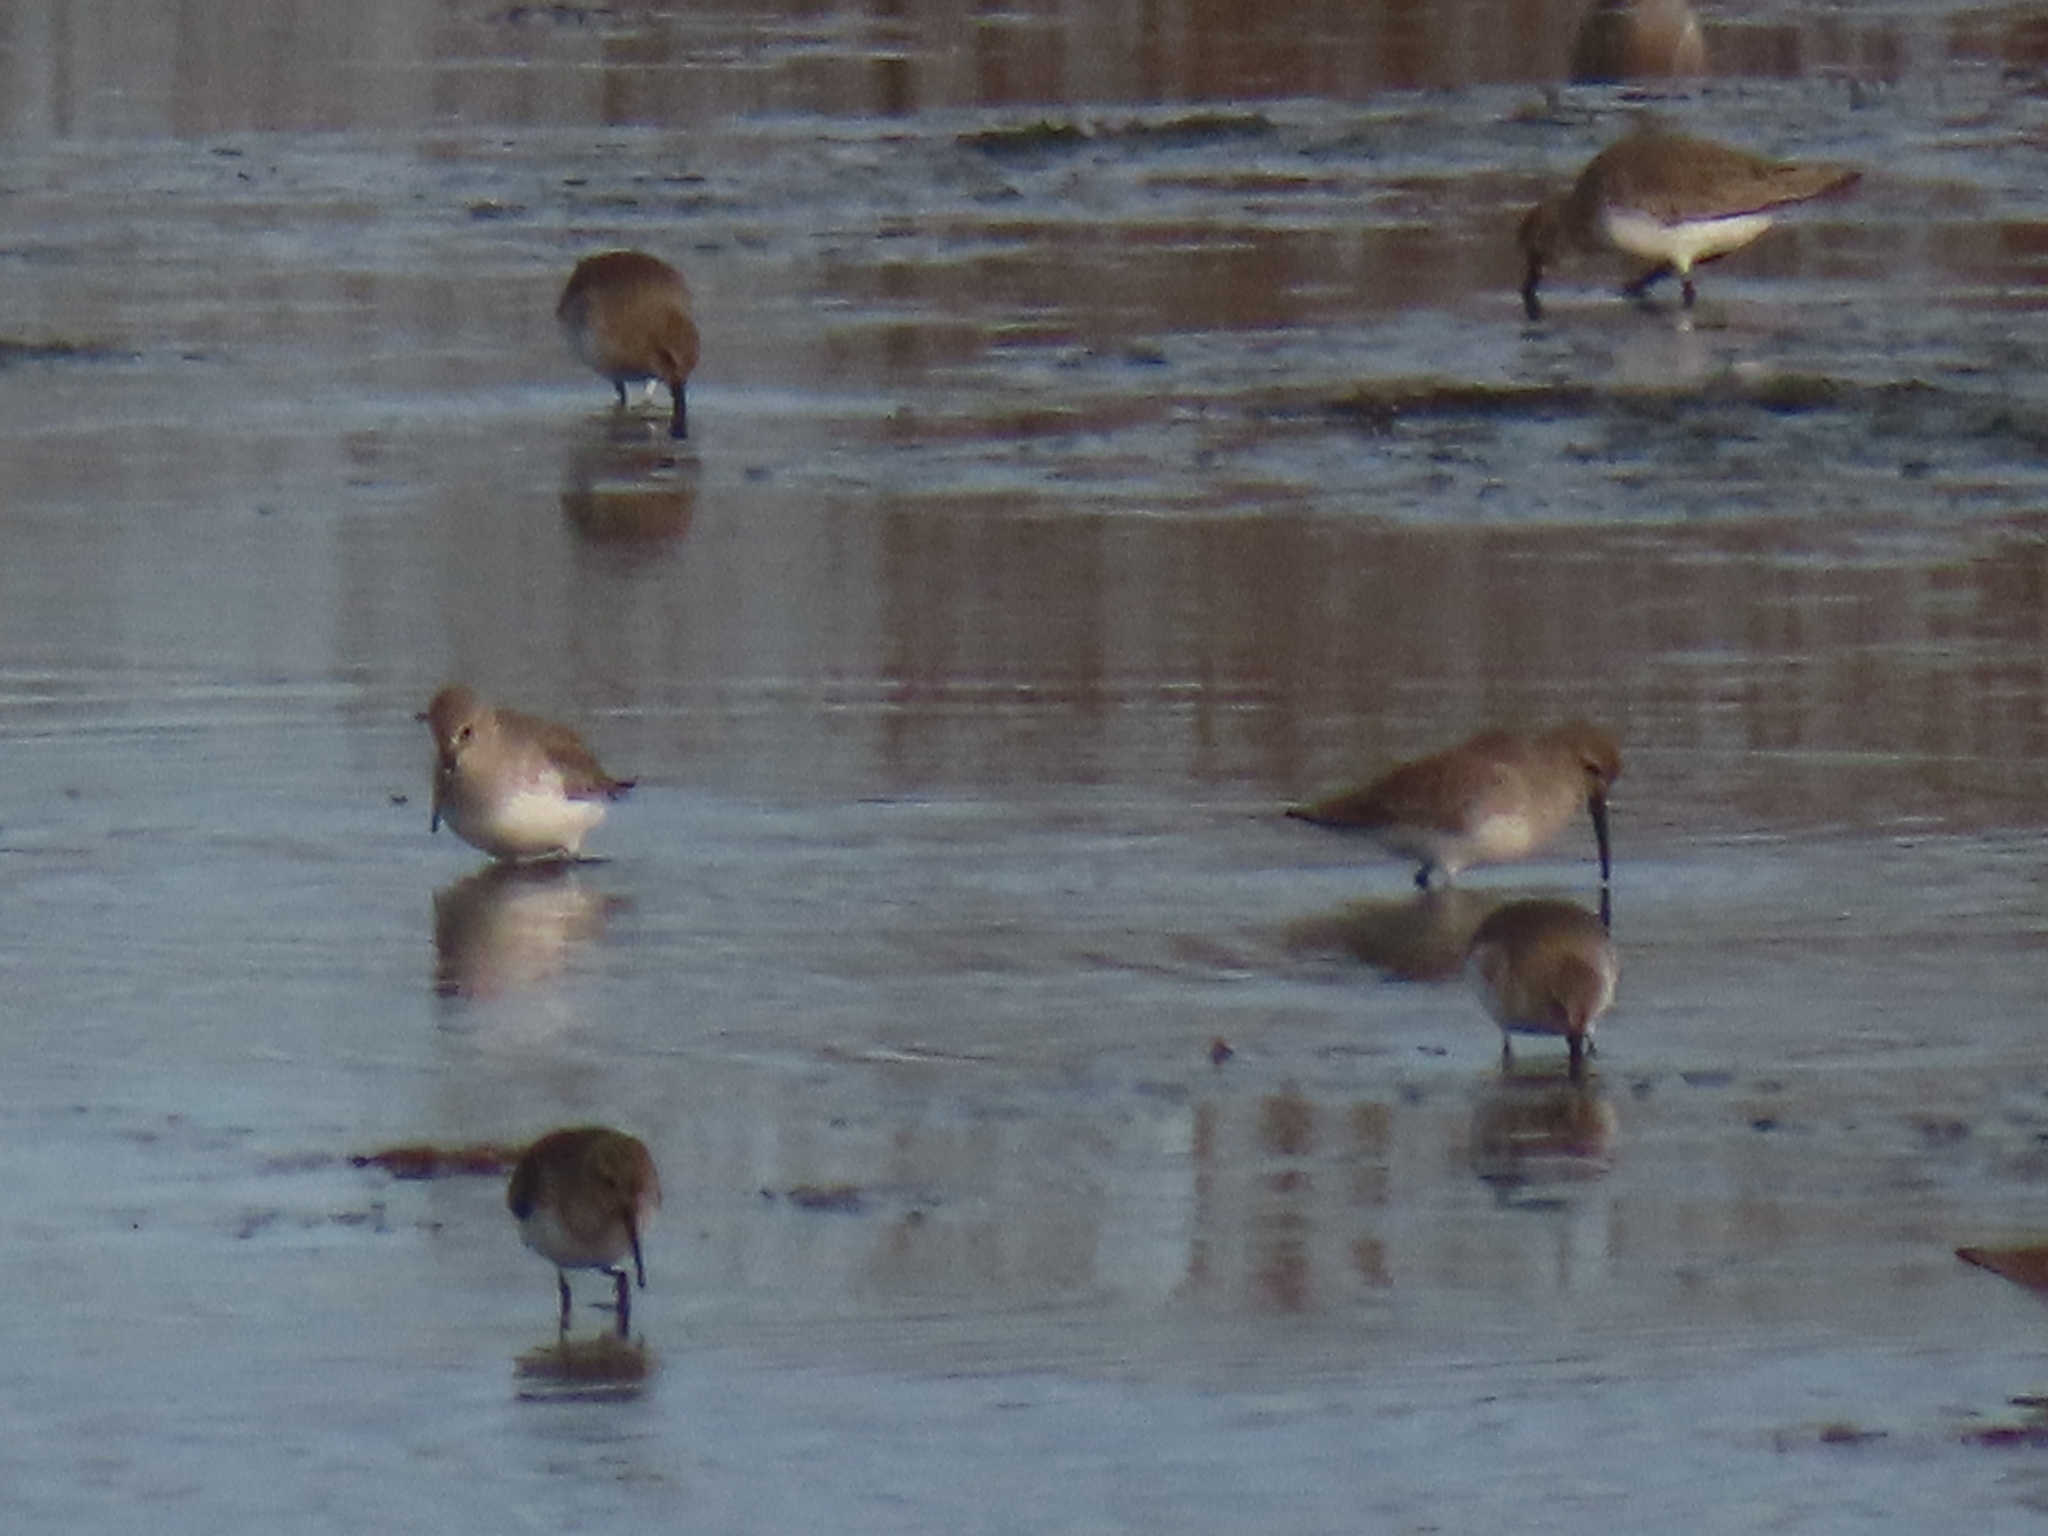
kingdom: Animalia
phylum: Chordata
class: Aves
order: Charadriiformes
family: Scolopacidae
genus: Calidris
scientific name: Calidris alpina
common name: Dunlin
